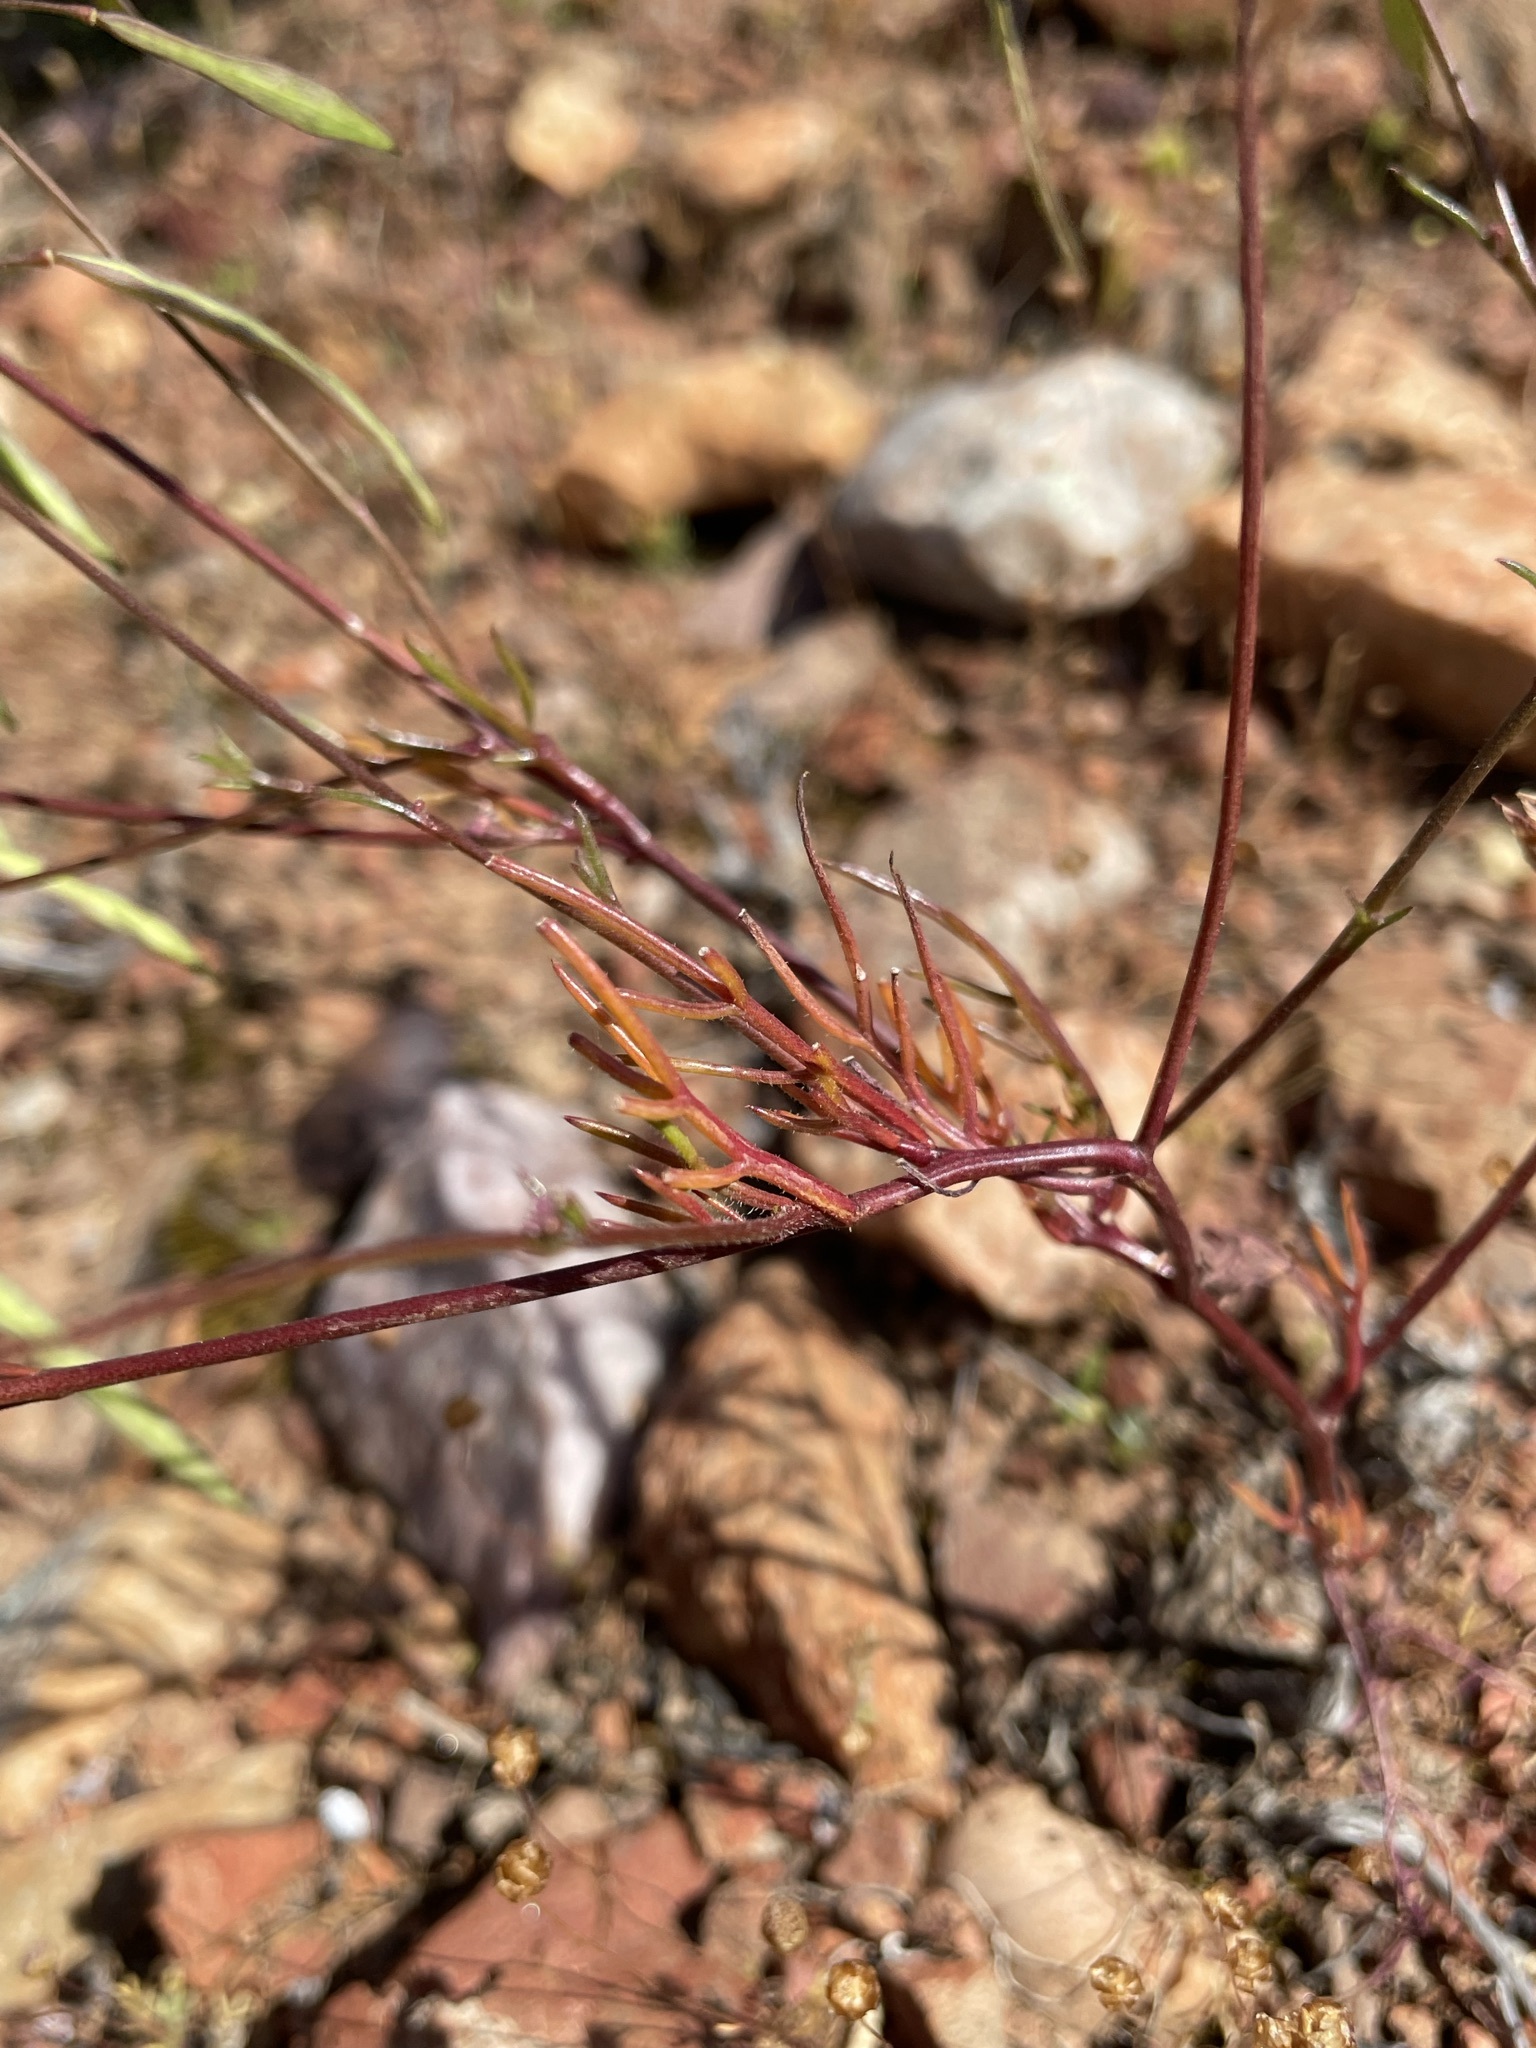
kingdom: Plantae
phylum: Tracheophyta
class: Magnoliopsida
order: Brassicales
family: Brassicaceae
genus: Heliophila
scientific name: Heliophila crithmifolia
